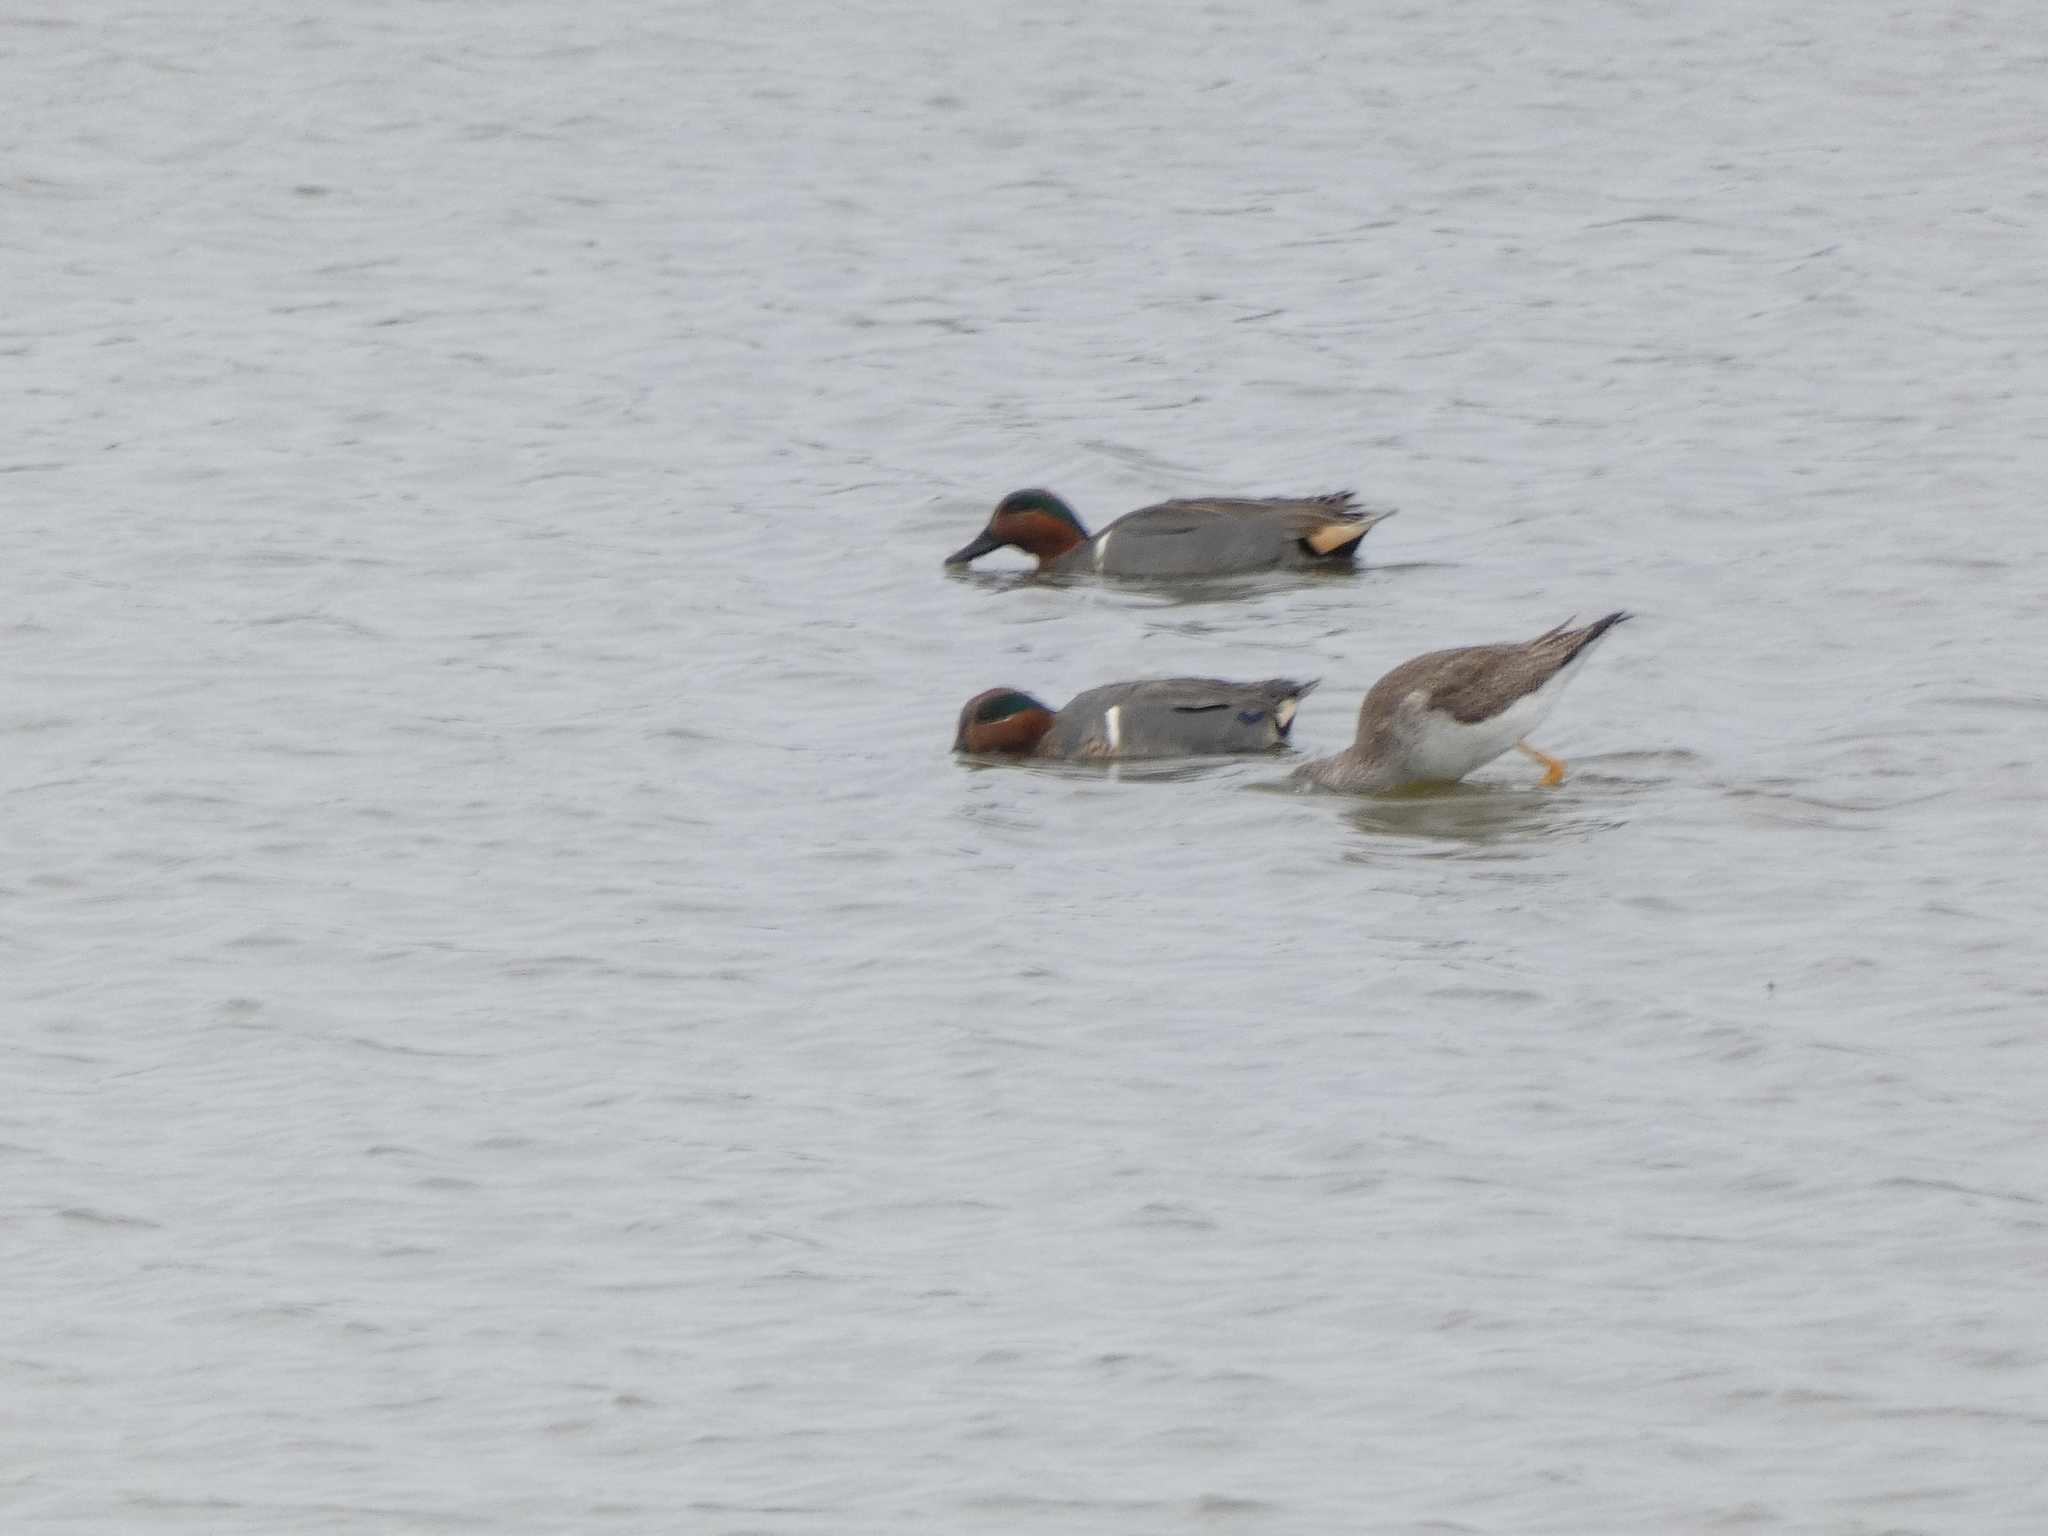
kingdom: Animalia
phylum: Chordata
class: Aves
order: Anseriformes
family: Anatidae
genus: Anas
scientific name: Anas carolinensis
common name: Green-winged teal
